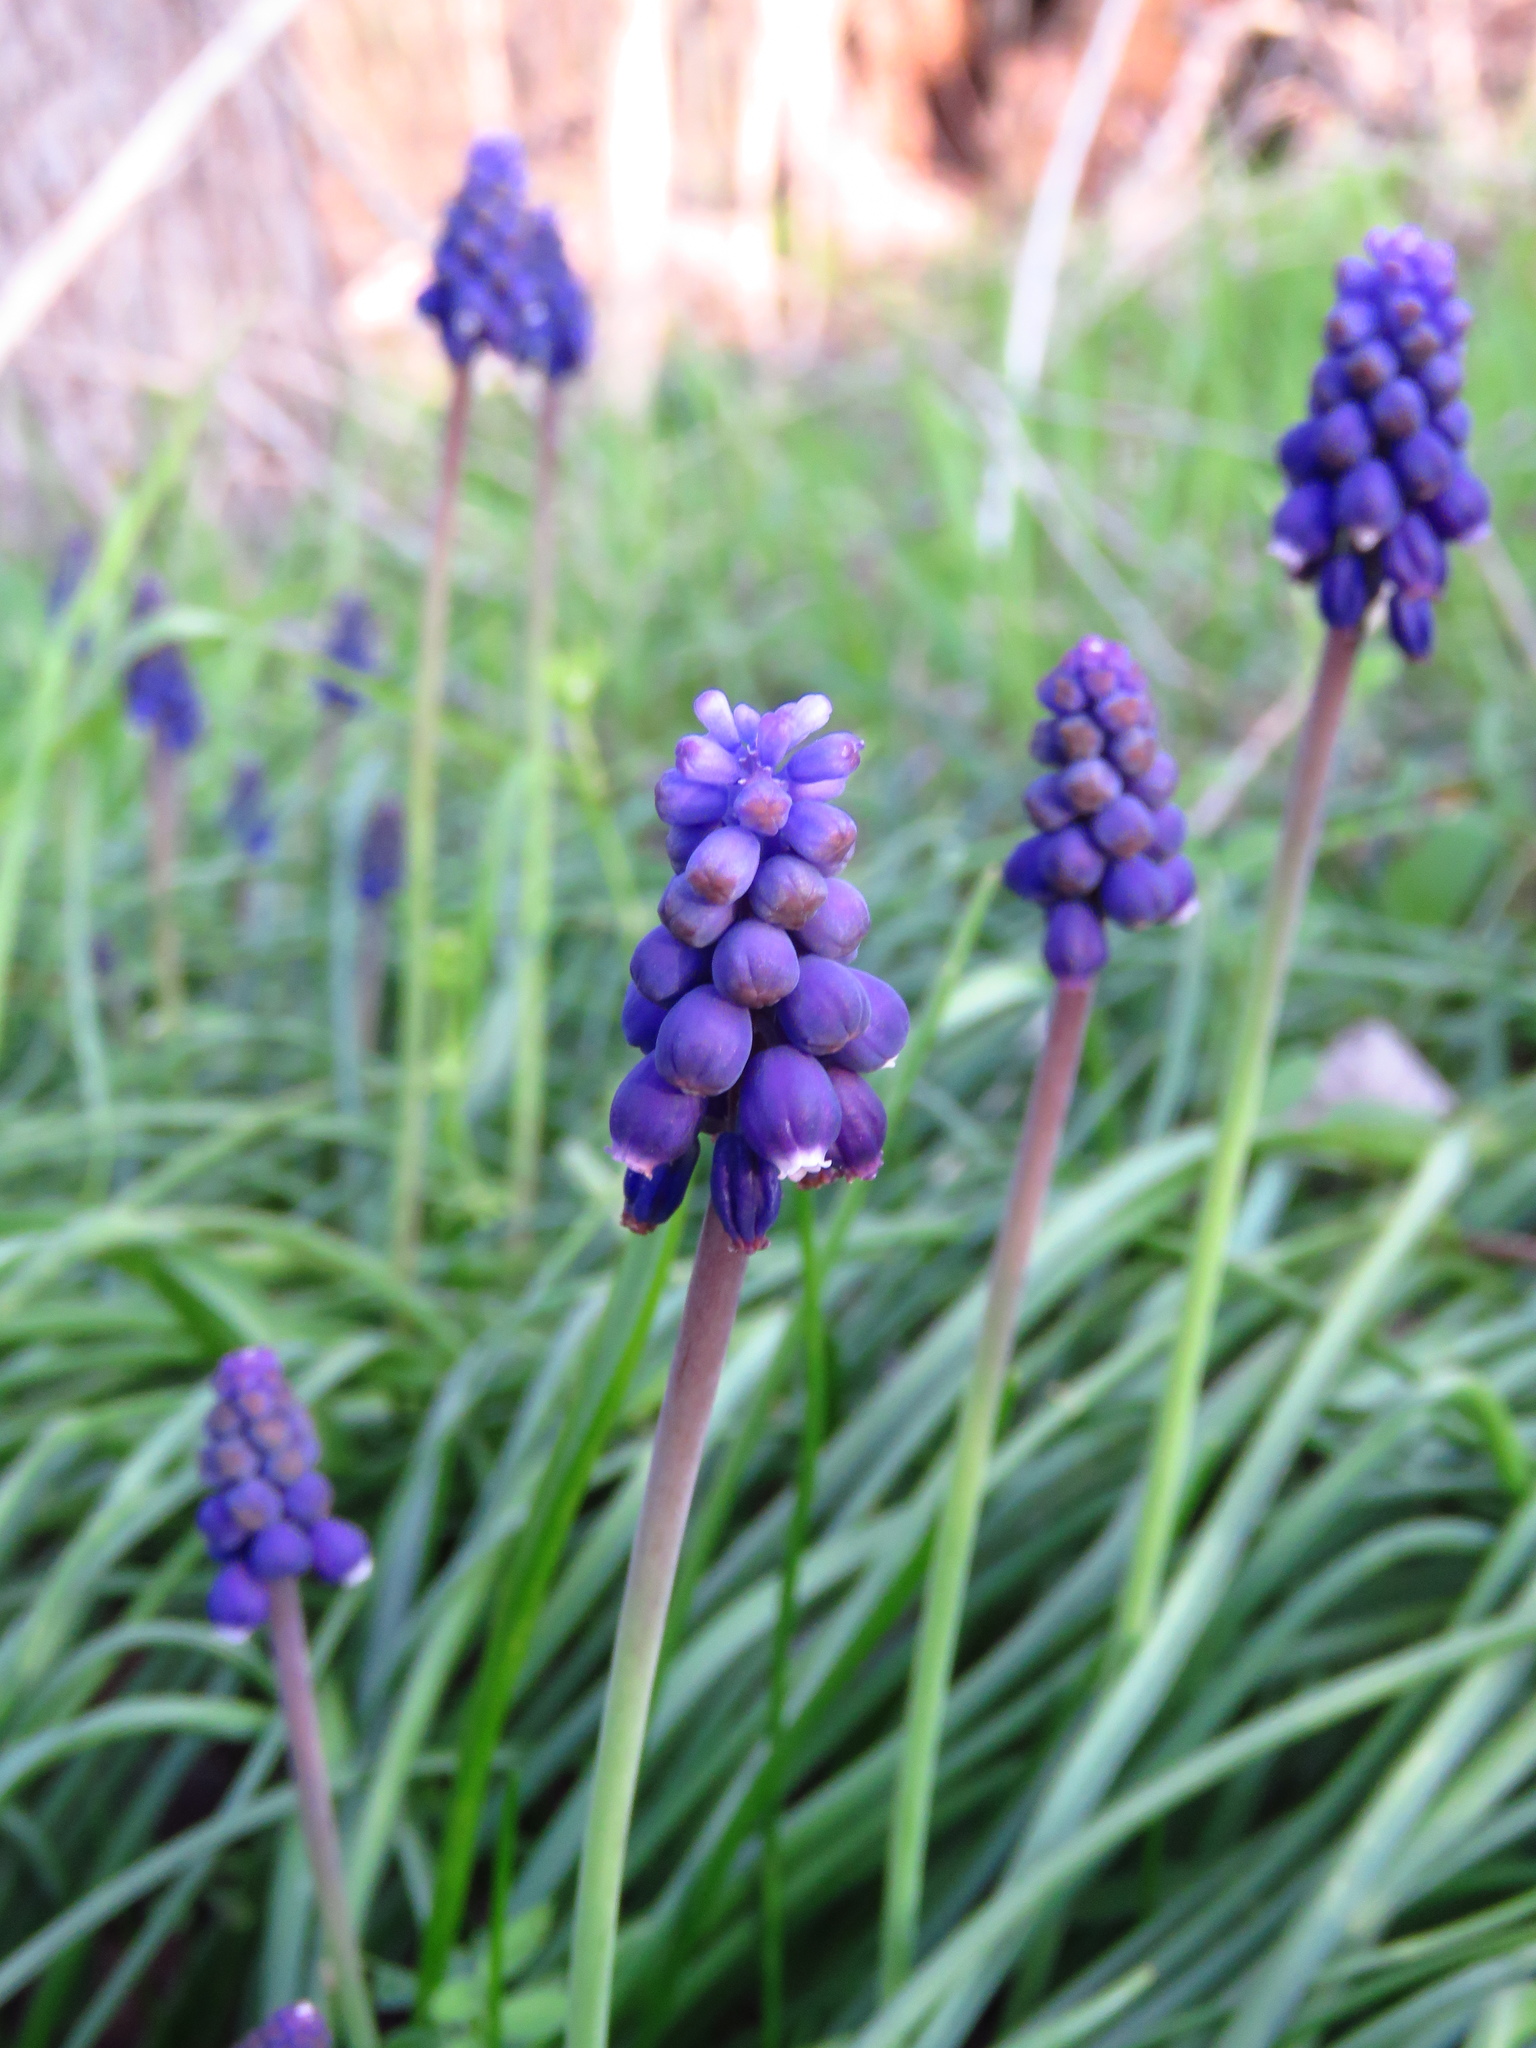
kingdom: Plantae
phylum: Tracheophyta
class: Liliopsida
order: Asparagales
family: Asparagaceae
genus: Muscari
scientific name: Muscari neglectum
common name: Grape-hyacinth
